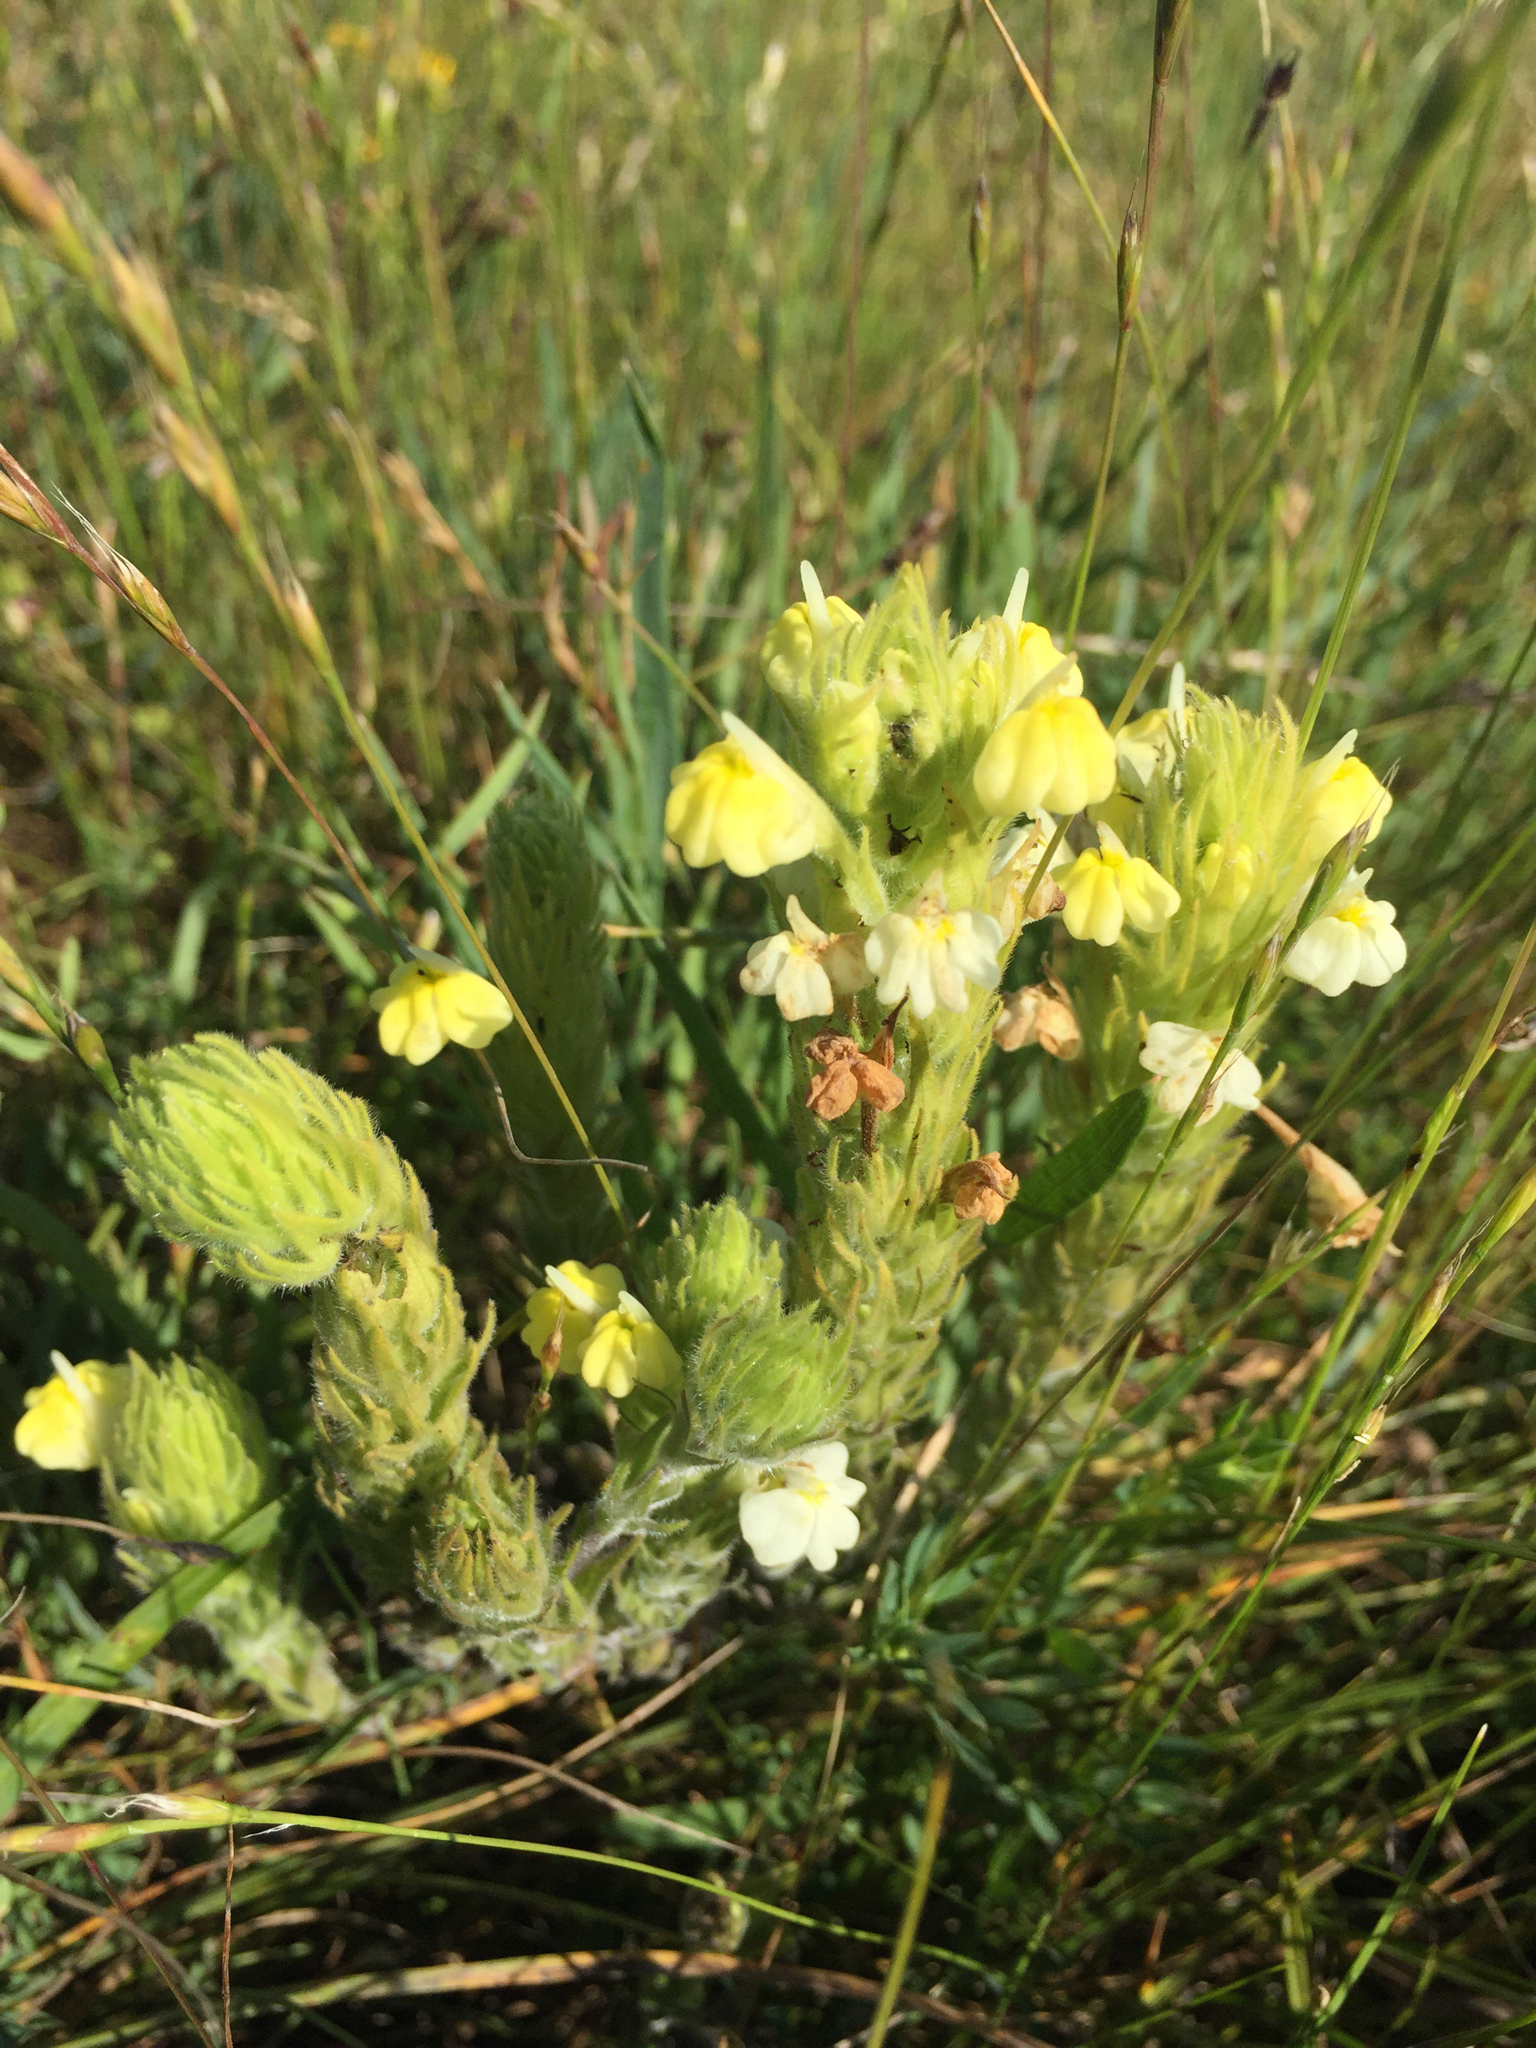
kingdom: Plantae
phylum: Tracheophyta
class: Magnoliopsida
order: Lamiales
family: Orobanchaceae
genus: Castilleja
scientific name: Castilleja rubicundula
